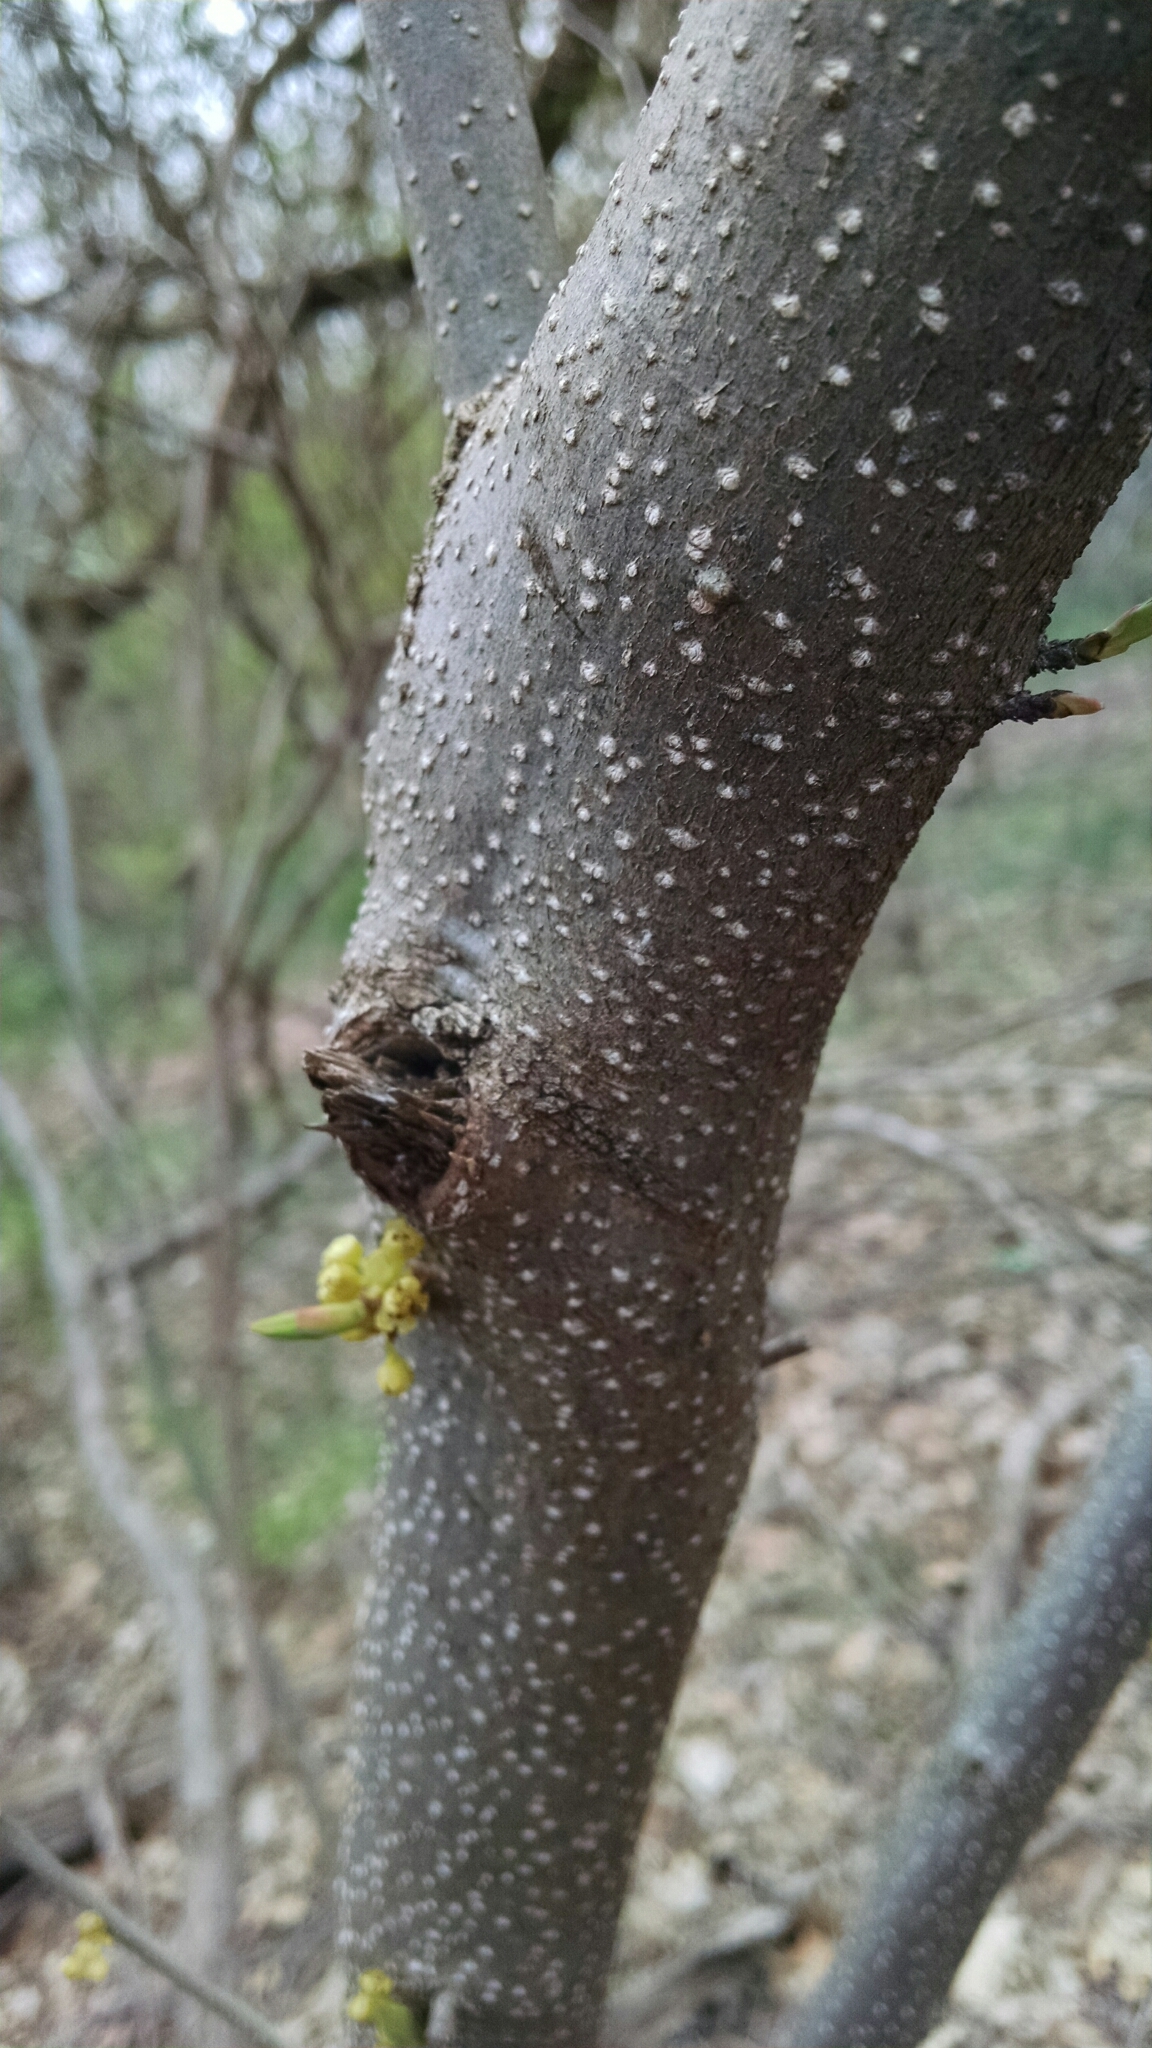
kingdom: Plantae
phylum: Tracheophyta
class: Magnoliopsida
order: Laurales
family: Lauraceae
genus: Lindera
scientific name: Lindera benzoin
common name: Spicebush
